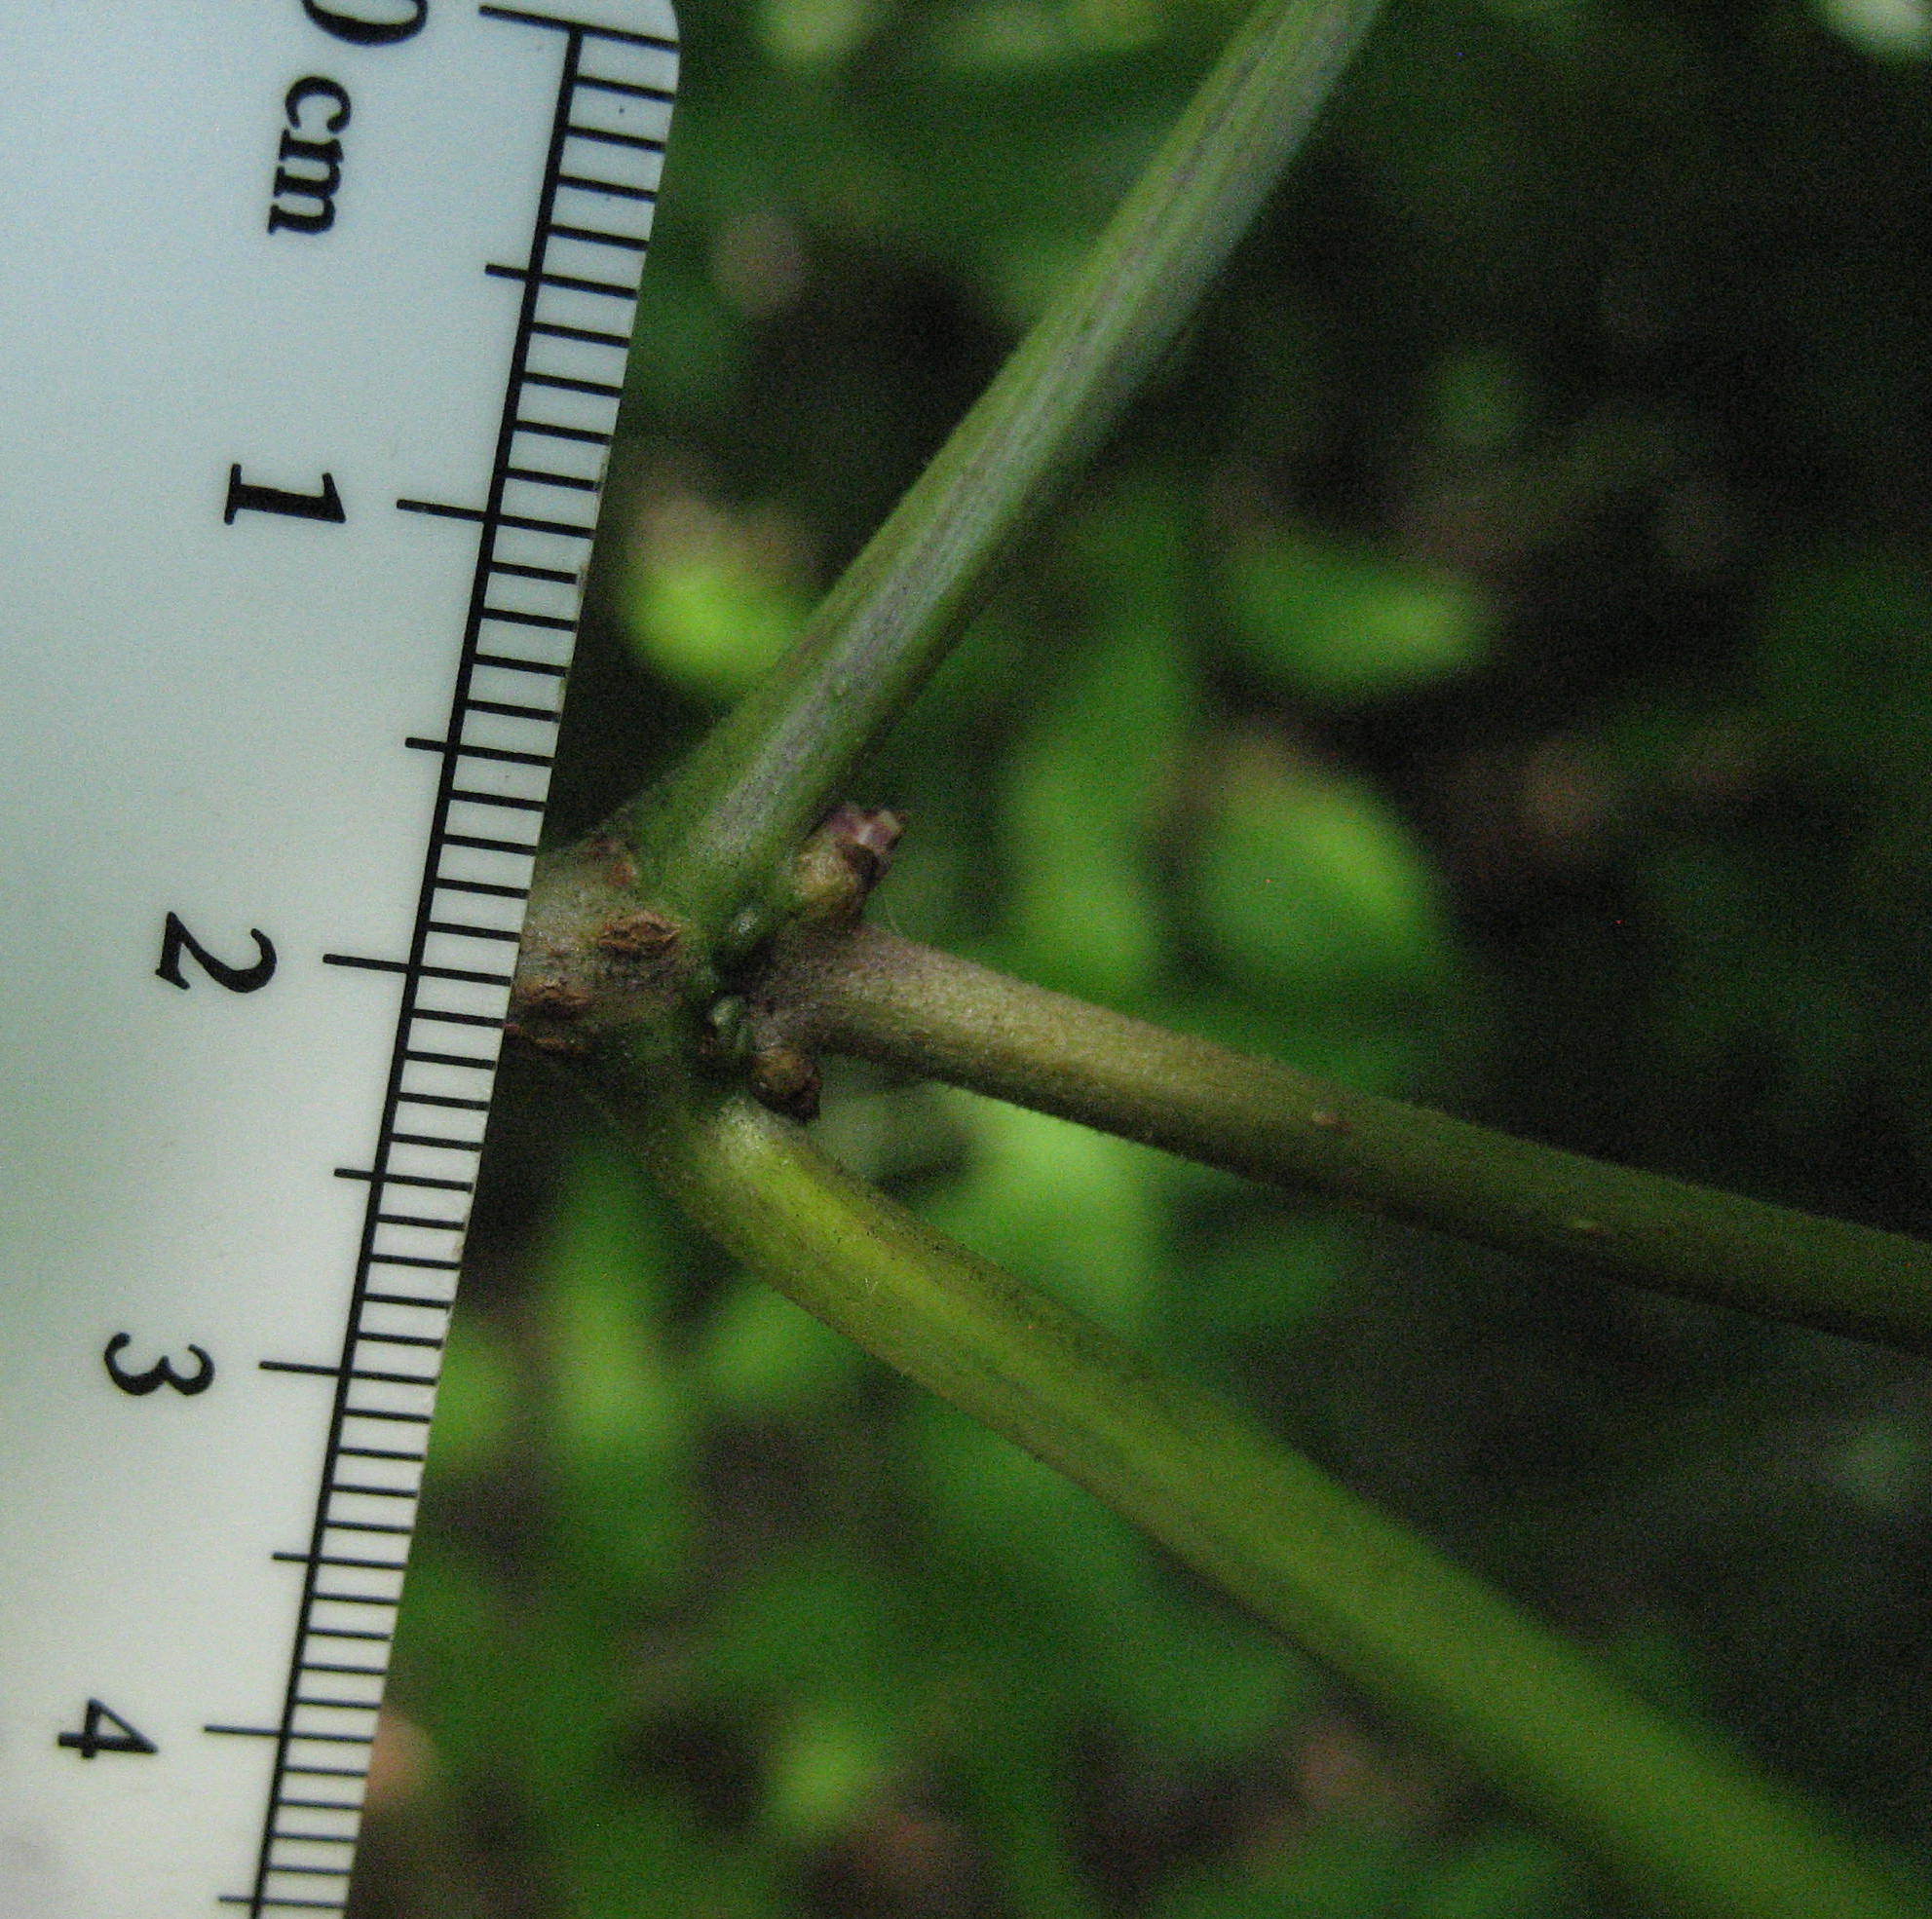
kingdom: Plantae
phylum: Tracheophyta
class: Magnoliopsida
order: Dipsacales
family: Viburnaceae
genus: Sambucus
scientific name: Sambucus racemosa
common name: Red-berried elder
